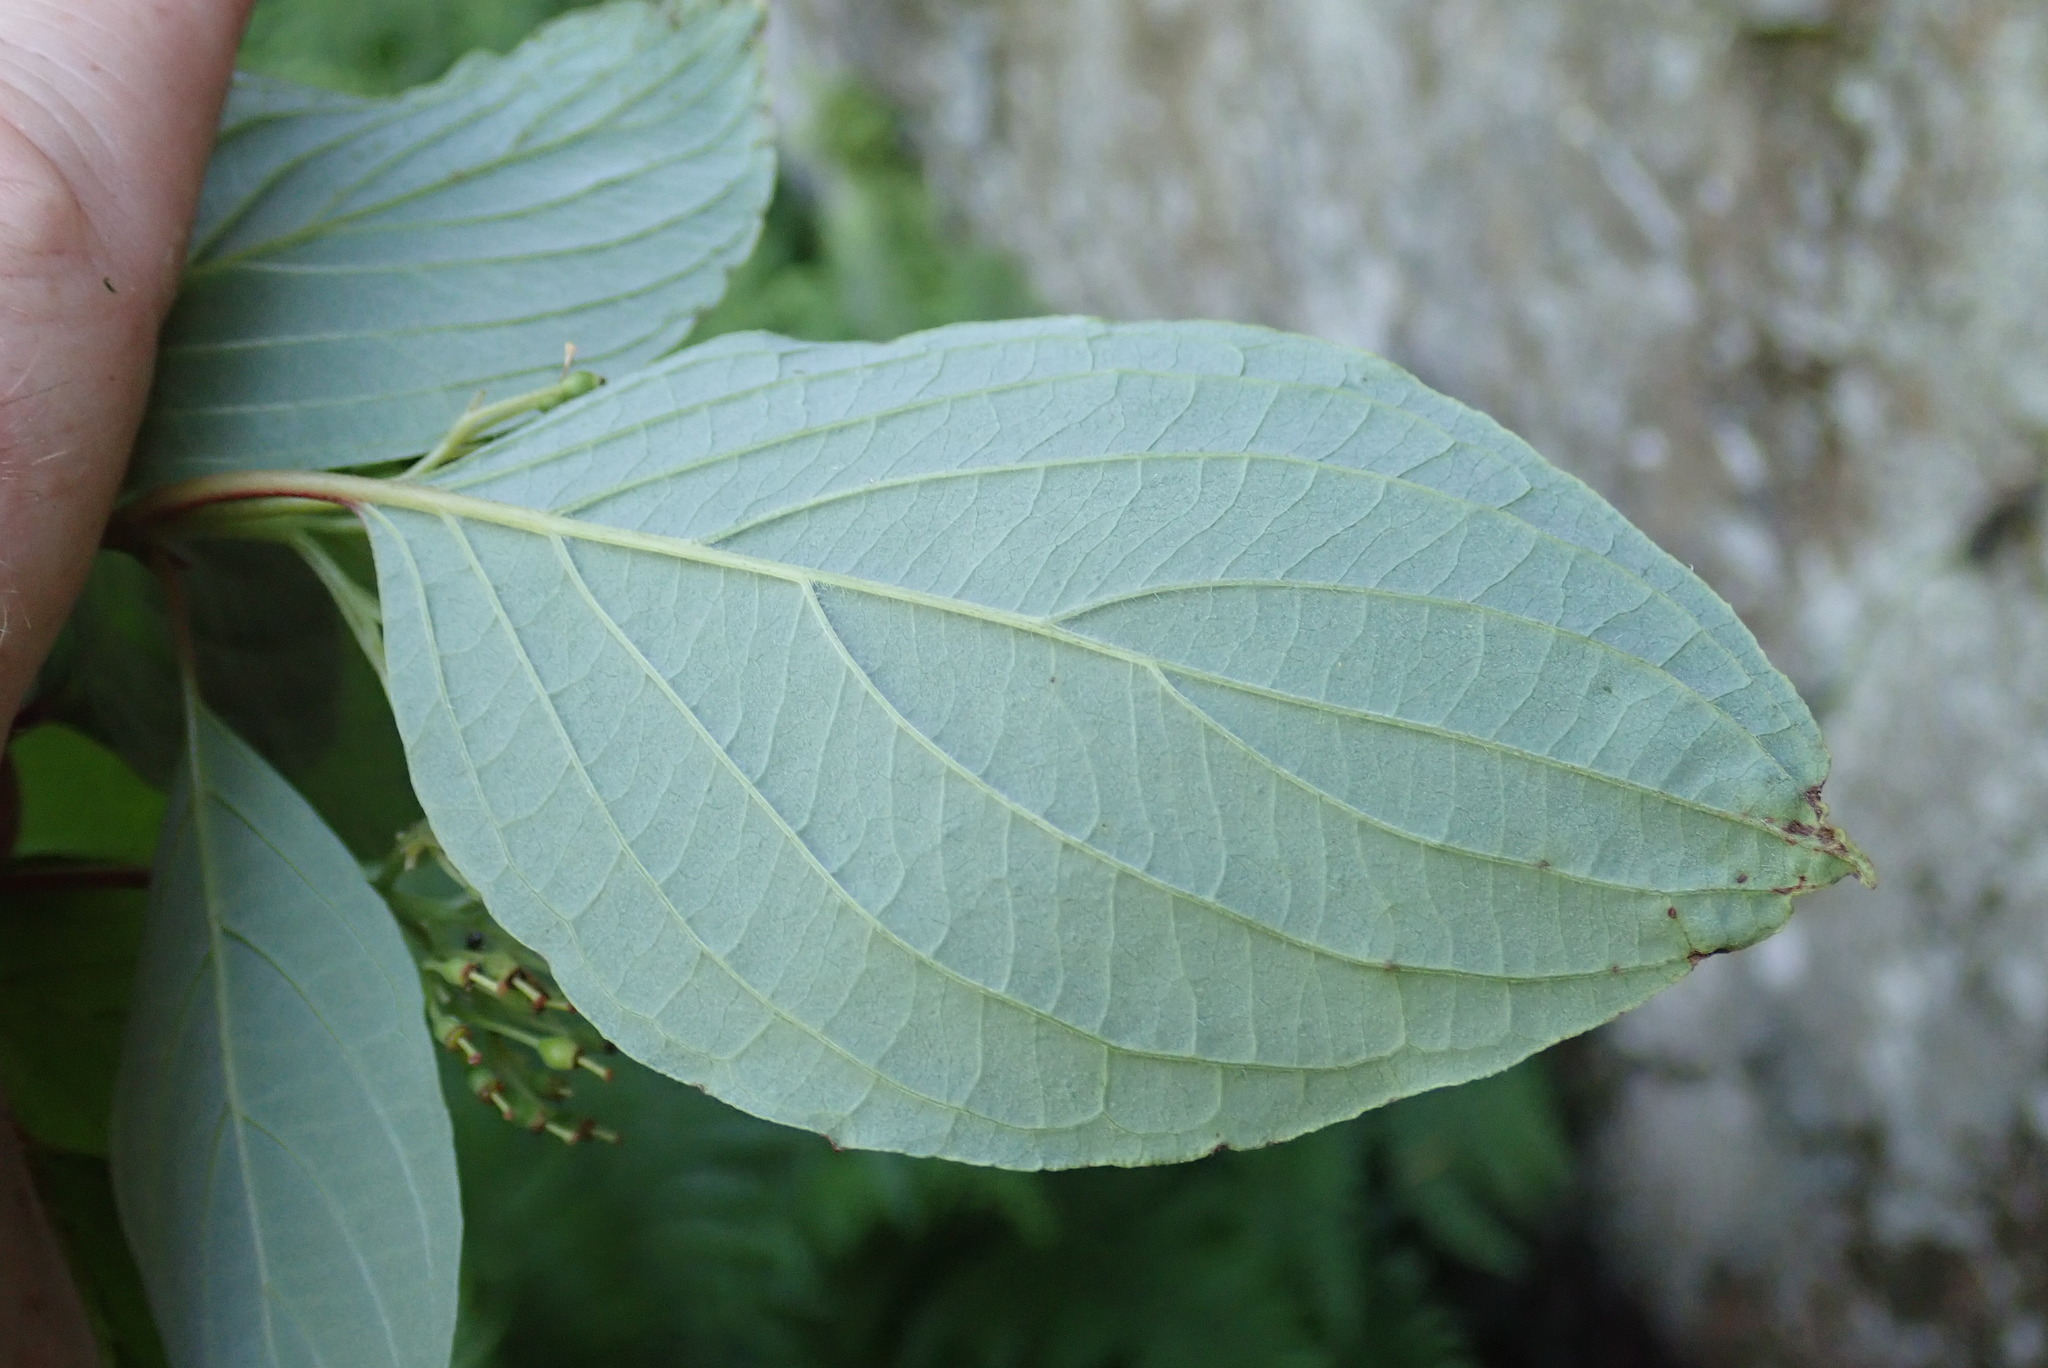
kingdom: Plantae
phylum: Tracheophyta
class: Magnoliopsida
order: Cornales
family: Cornaceae
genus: Cornus
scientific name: Cornus rugosa
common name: Round-leaf dogwood
